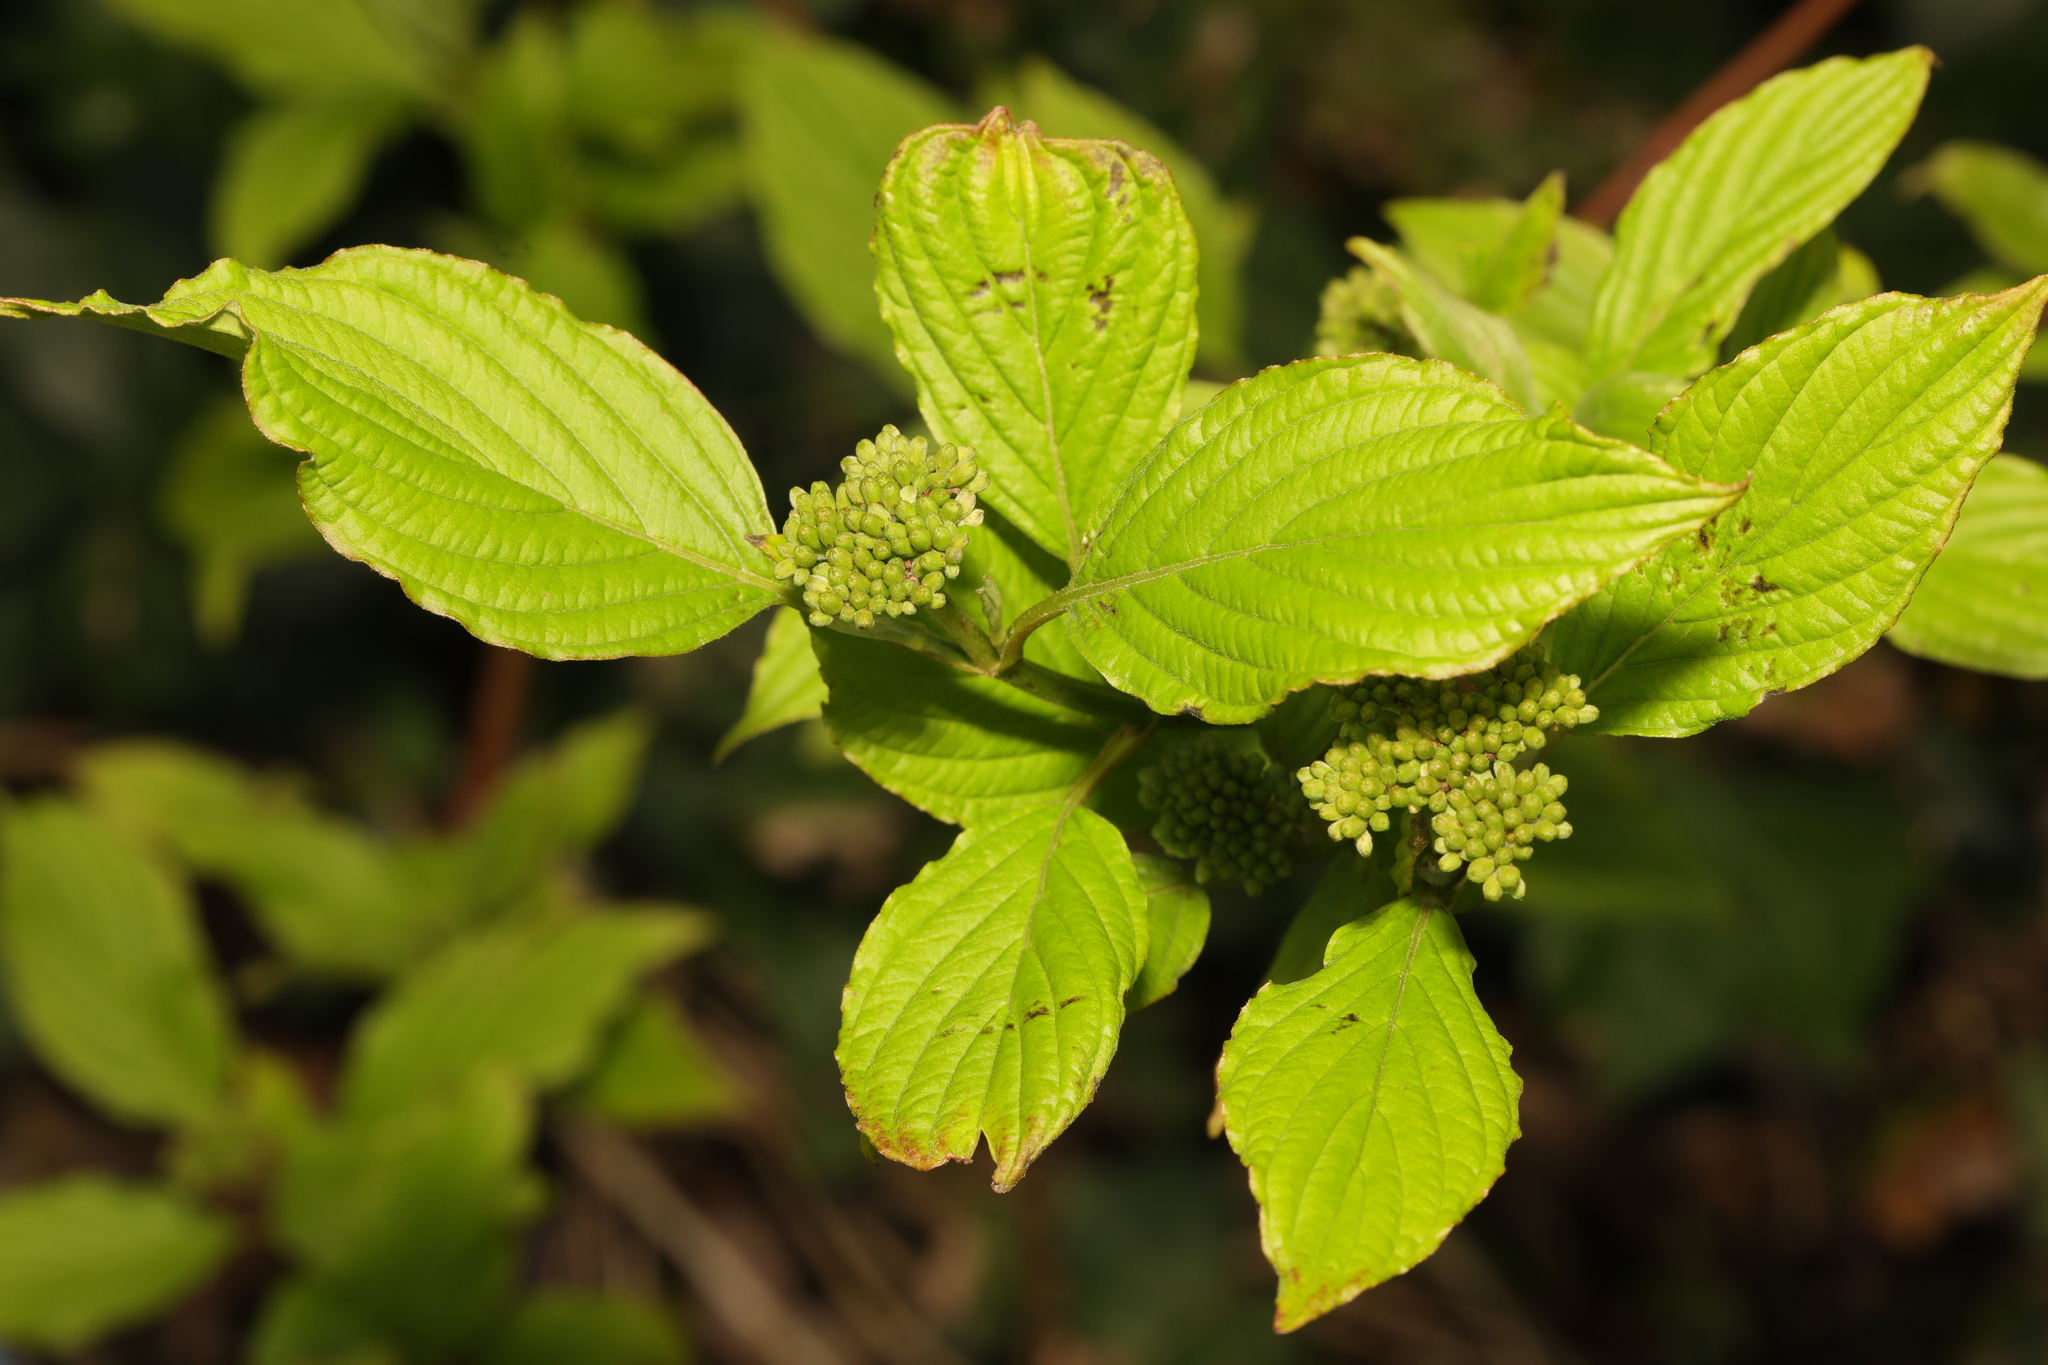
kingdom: Plantae
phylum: Tracheophyta
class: Magnoliopsida
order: Cornales
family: Cornaceae
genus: Cornus
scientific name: Cornus sericea
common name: Red-osier dogwood
